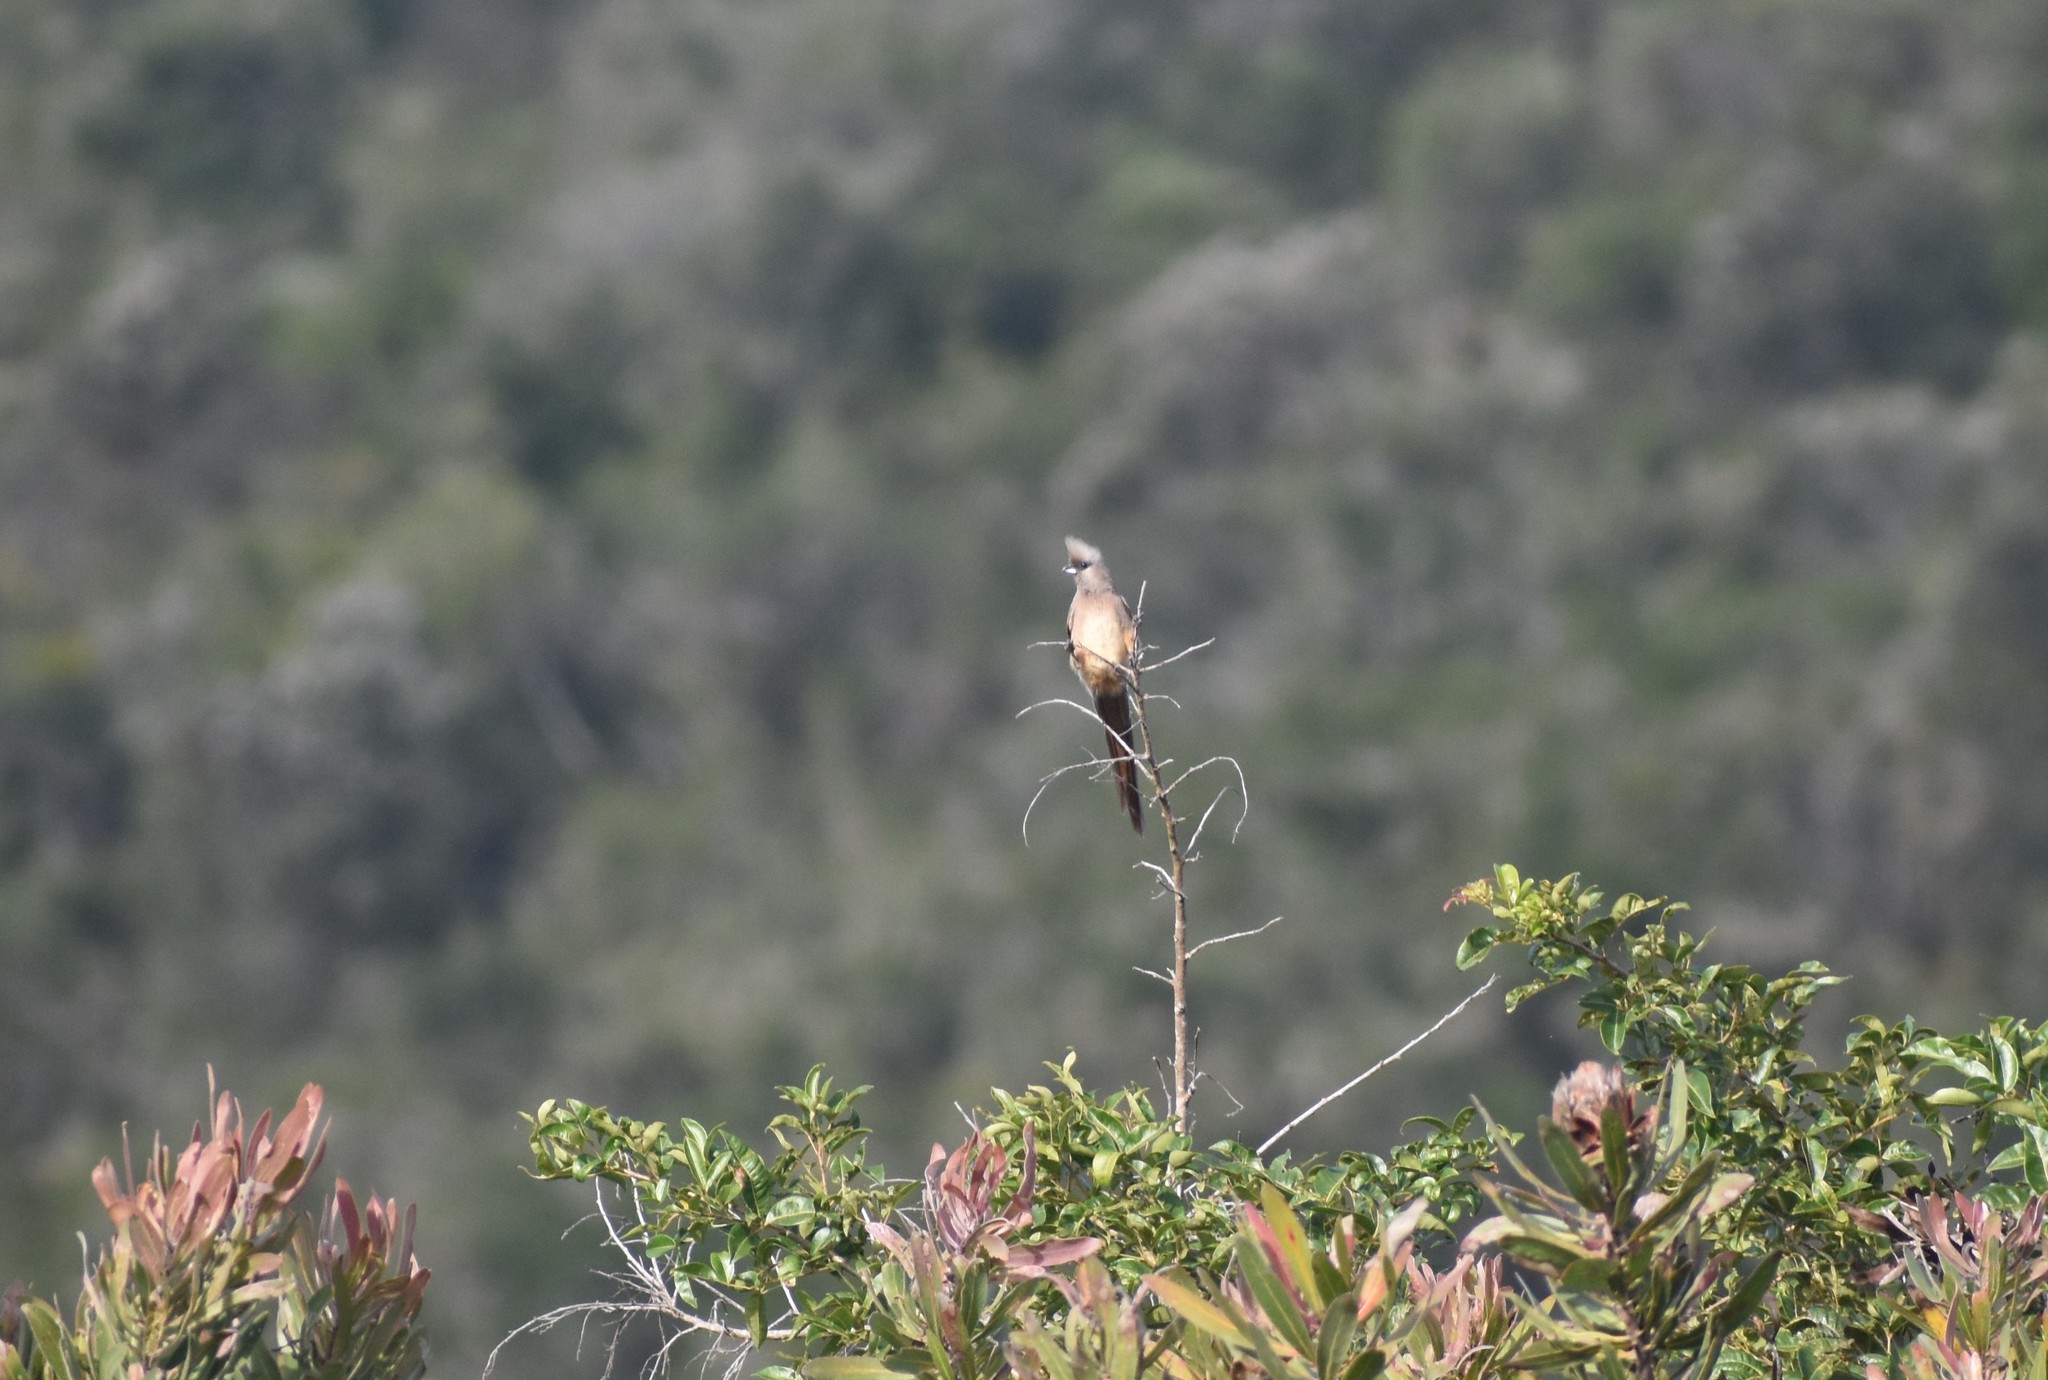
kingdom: Animalia
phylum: Chordata
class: Aves
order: Coliiformes
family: Coliidae
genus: Colius
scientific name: Colius striatus
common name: Speckled mousebird
